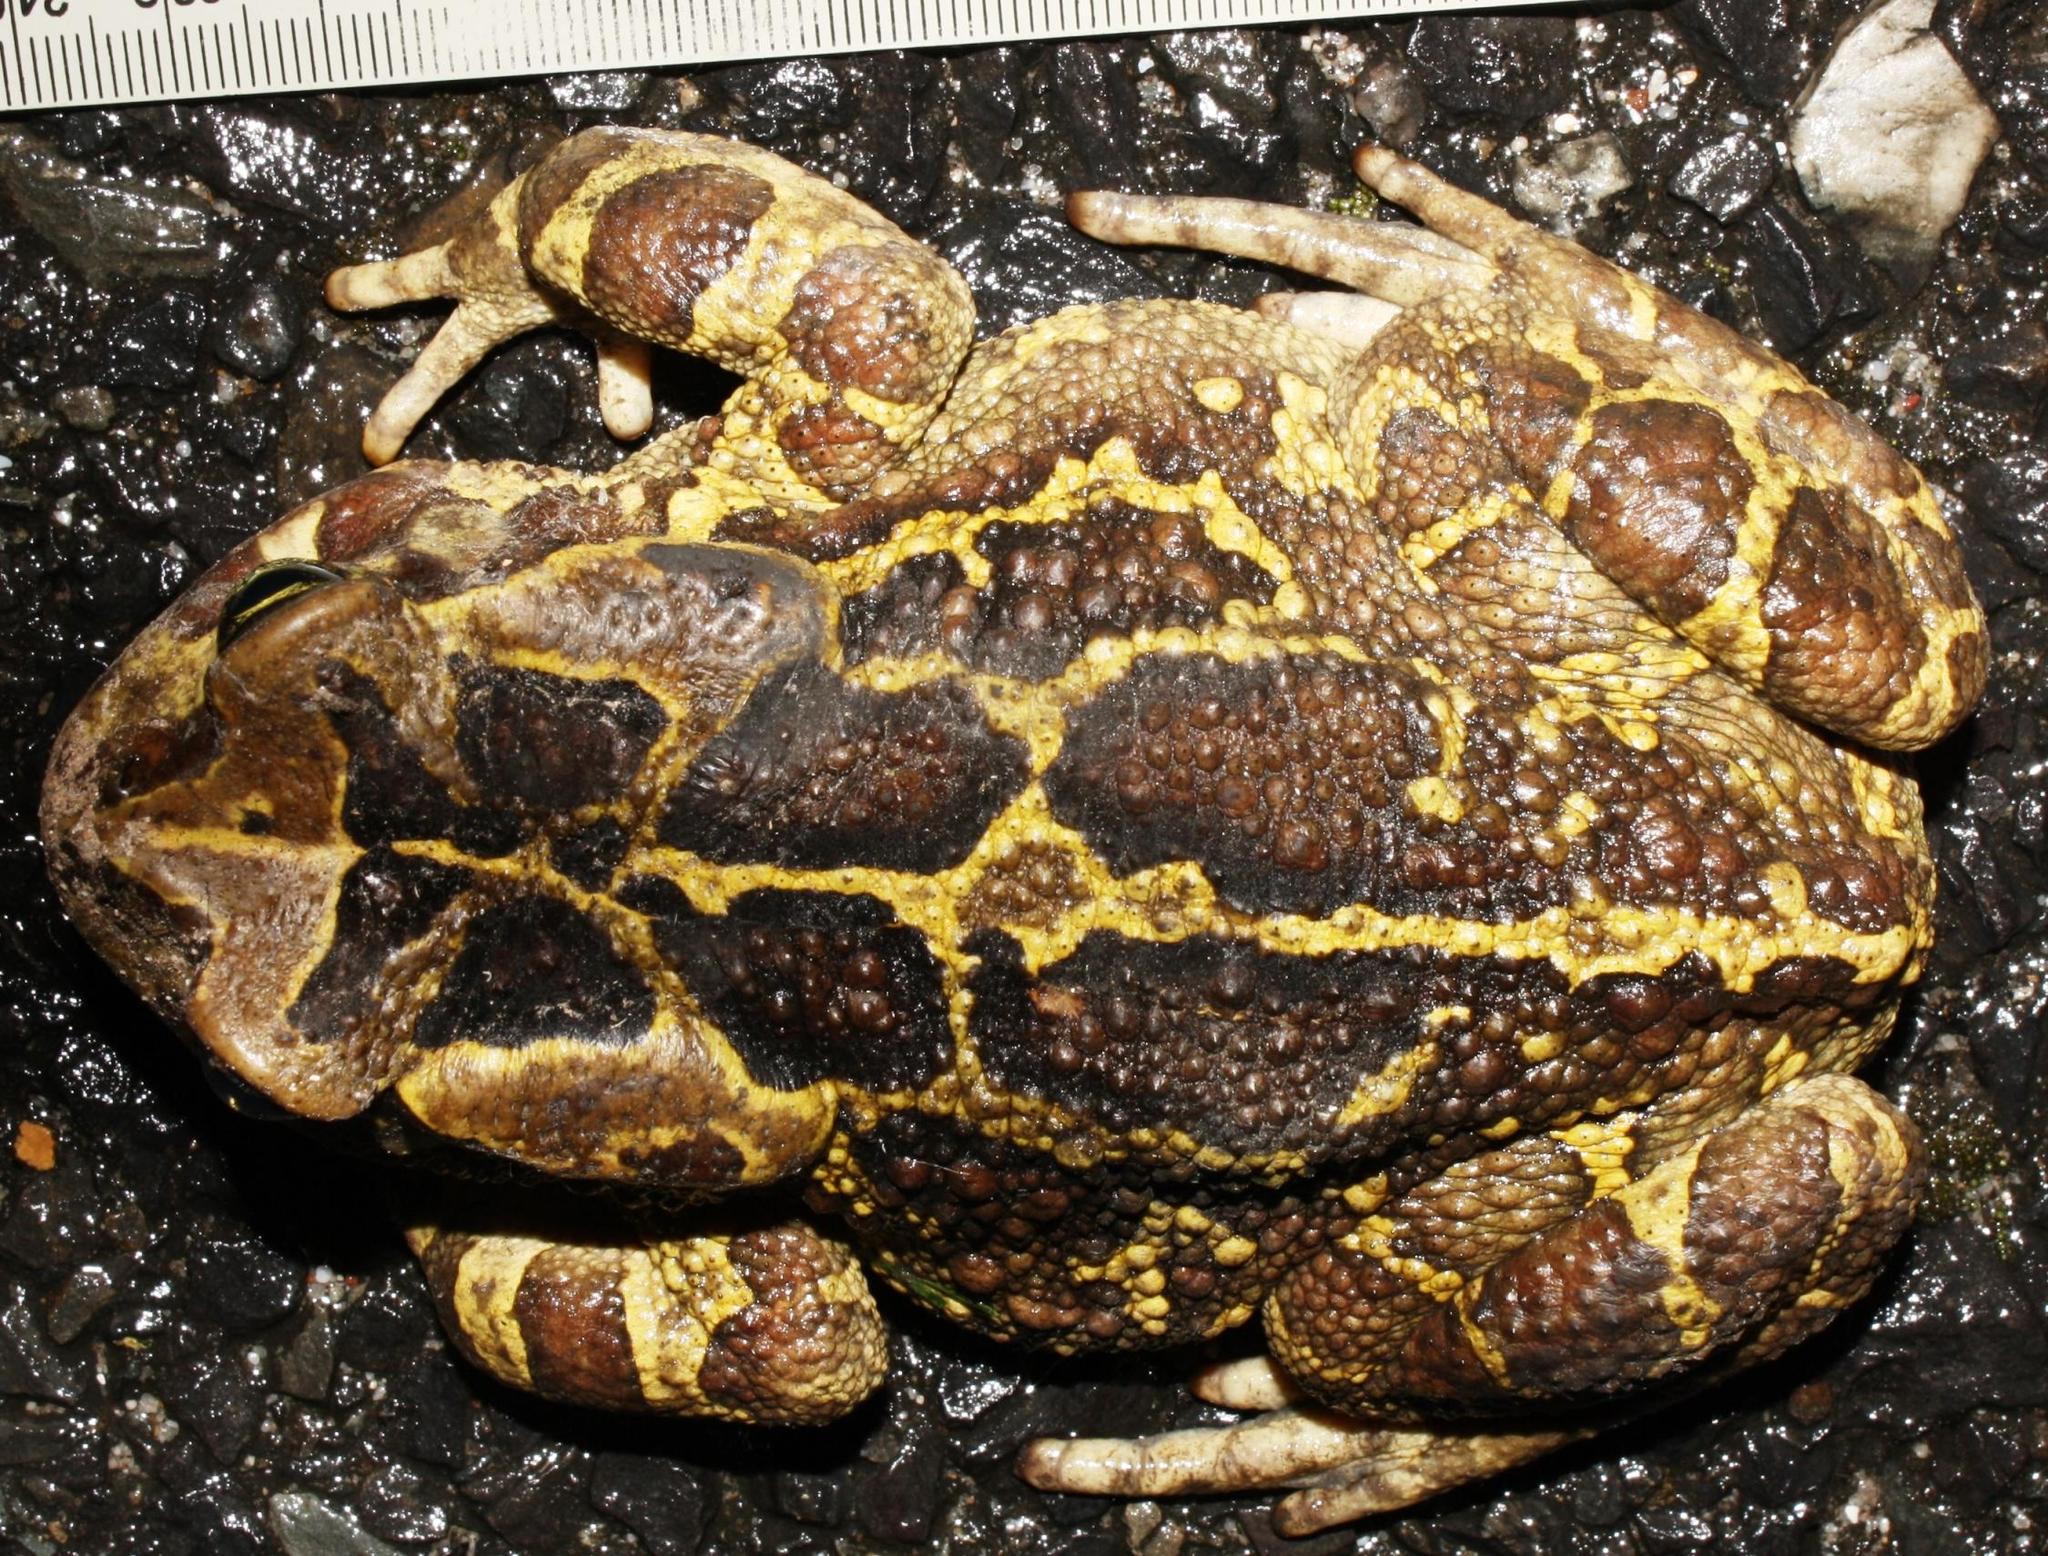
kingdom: Animalia
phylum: Chordata
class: Amphibia
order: Anura
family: Bufonidae
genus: Sclerophrys
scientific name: Sclerophrys pantherina
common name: Panther toad
